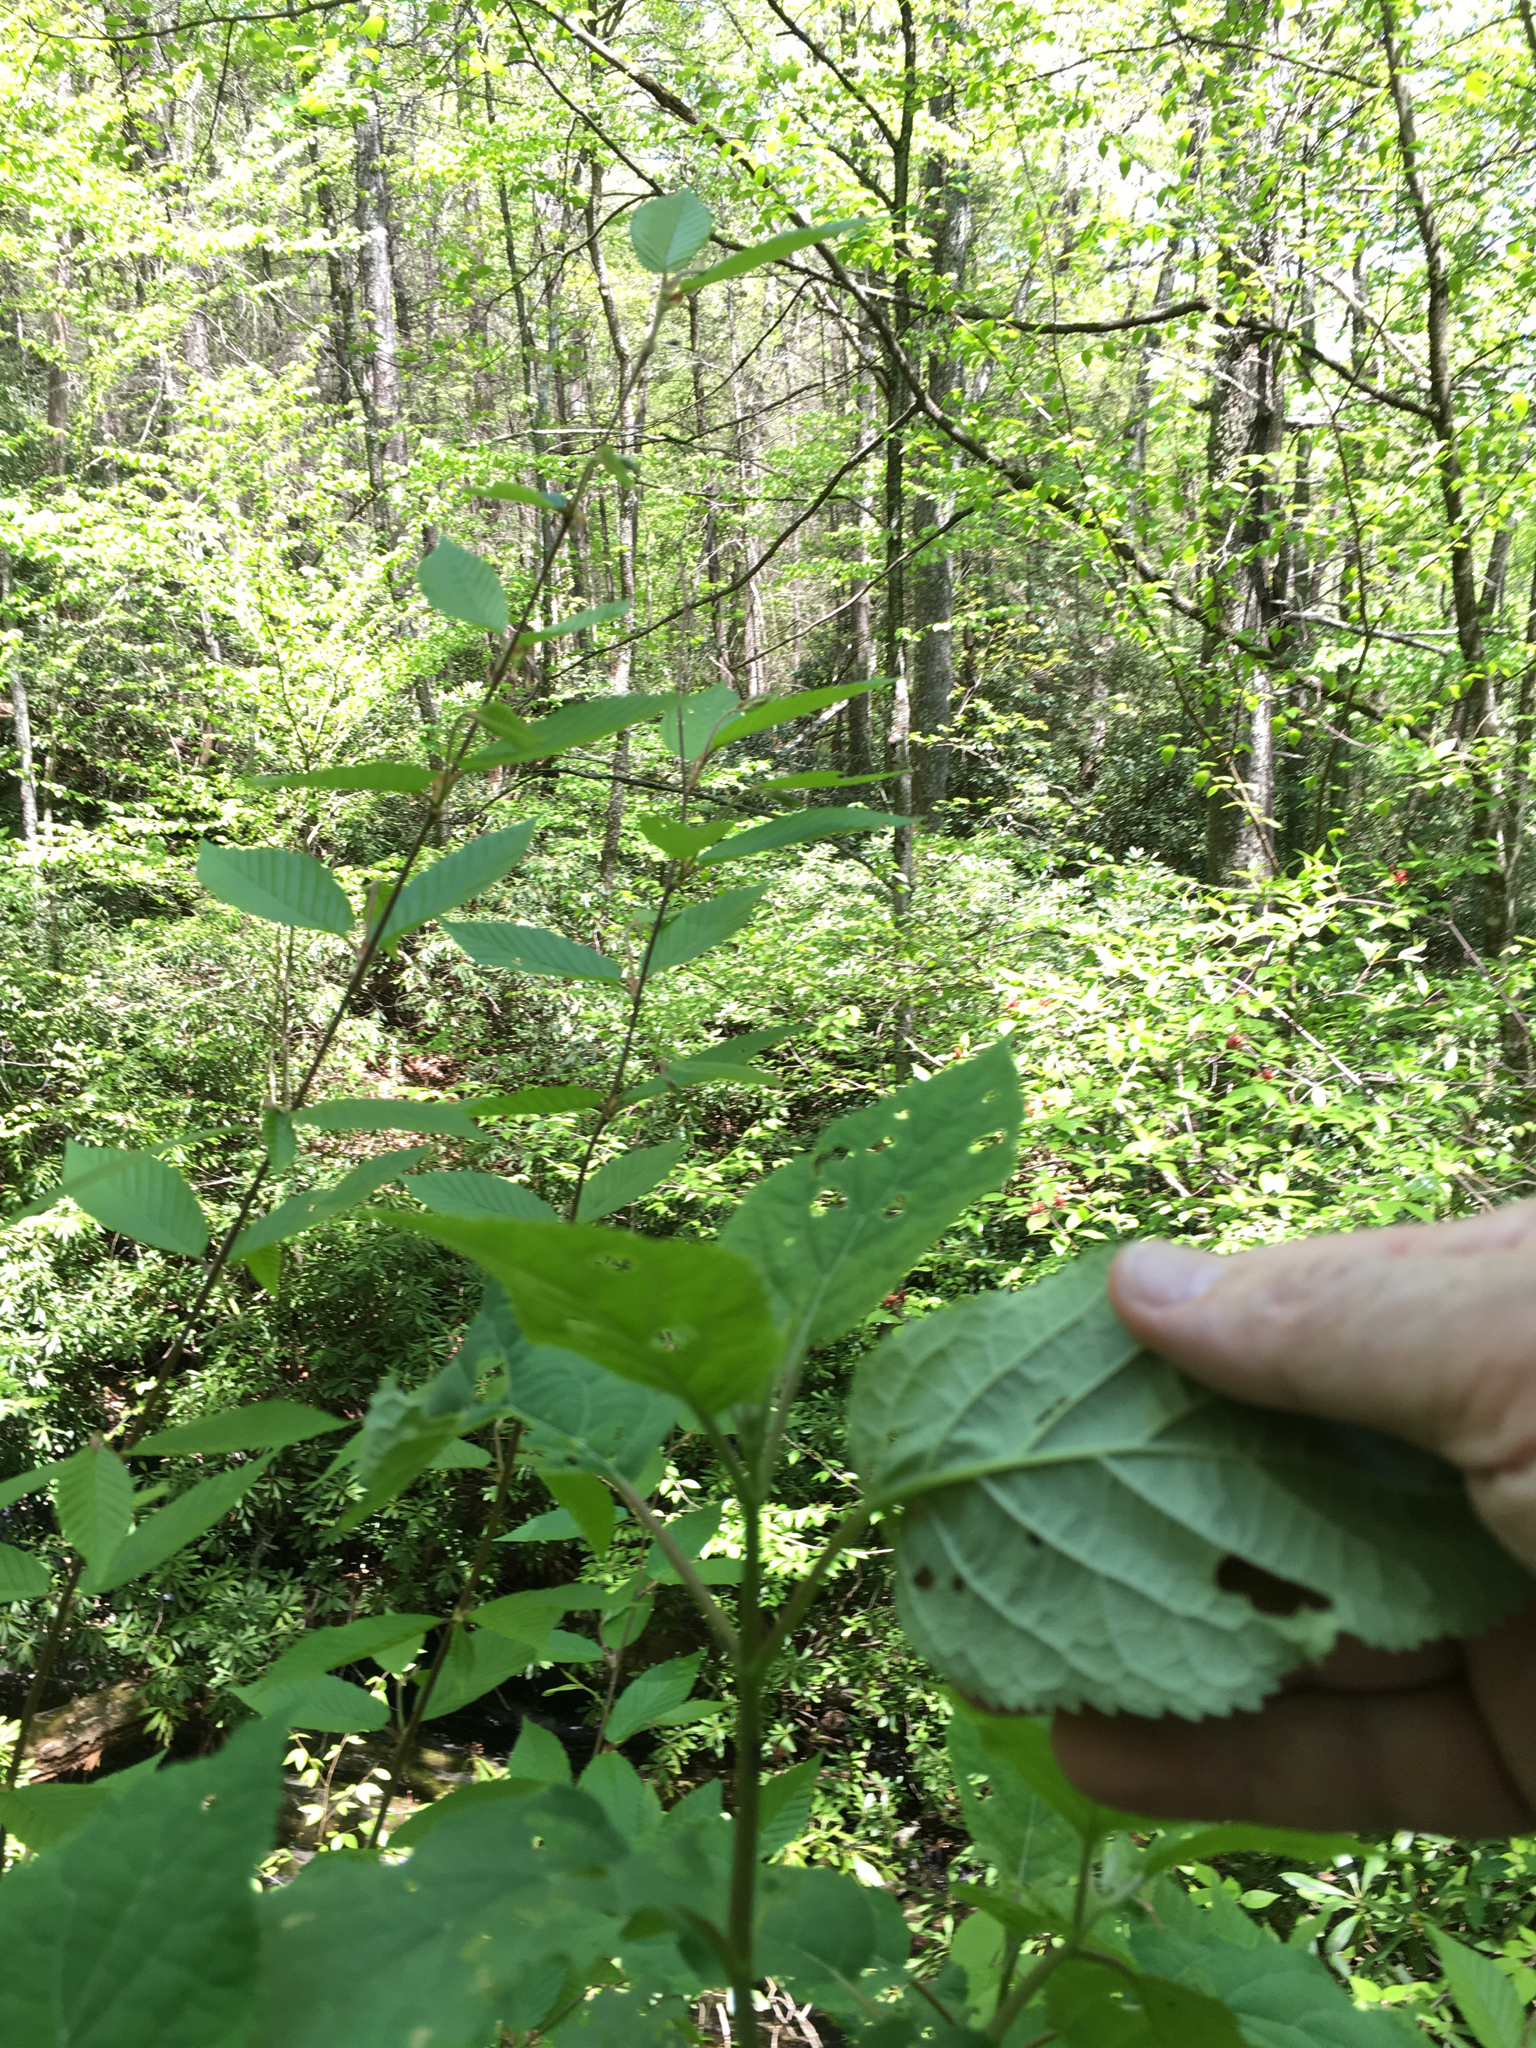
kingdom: Plantae
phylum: Tracheophyta
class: Magnoliopsida
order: Cornales
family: Hydrangeaceae
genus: Hydrangea
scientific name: Hydrangea arborescens
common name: Sevenbark
